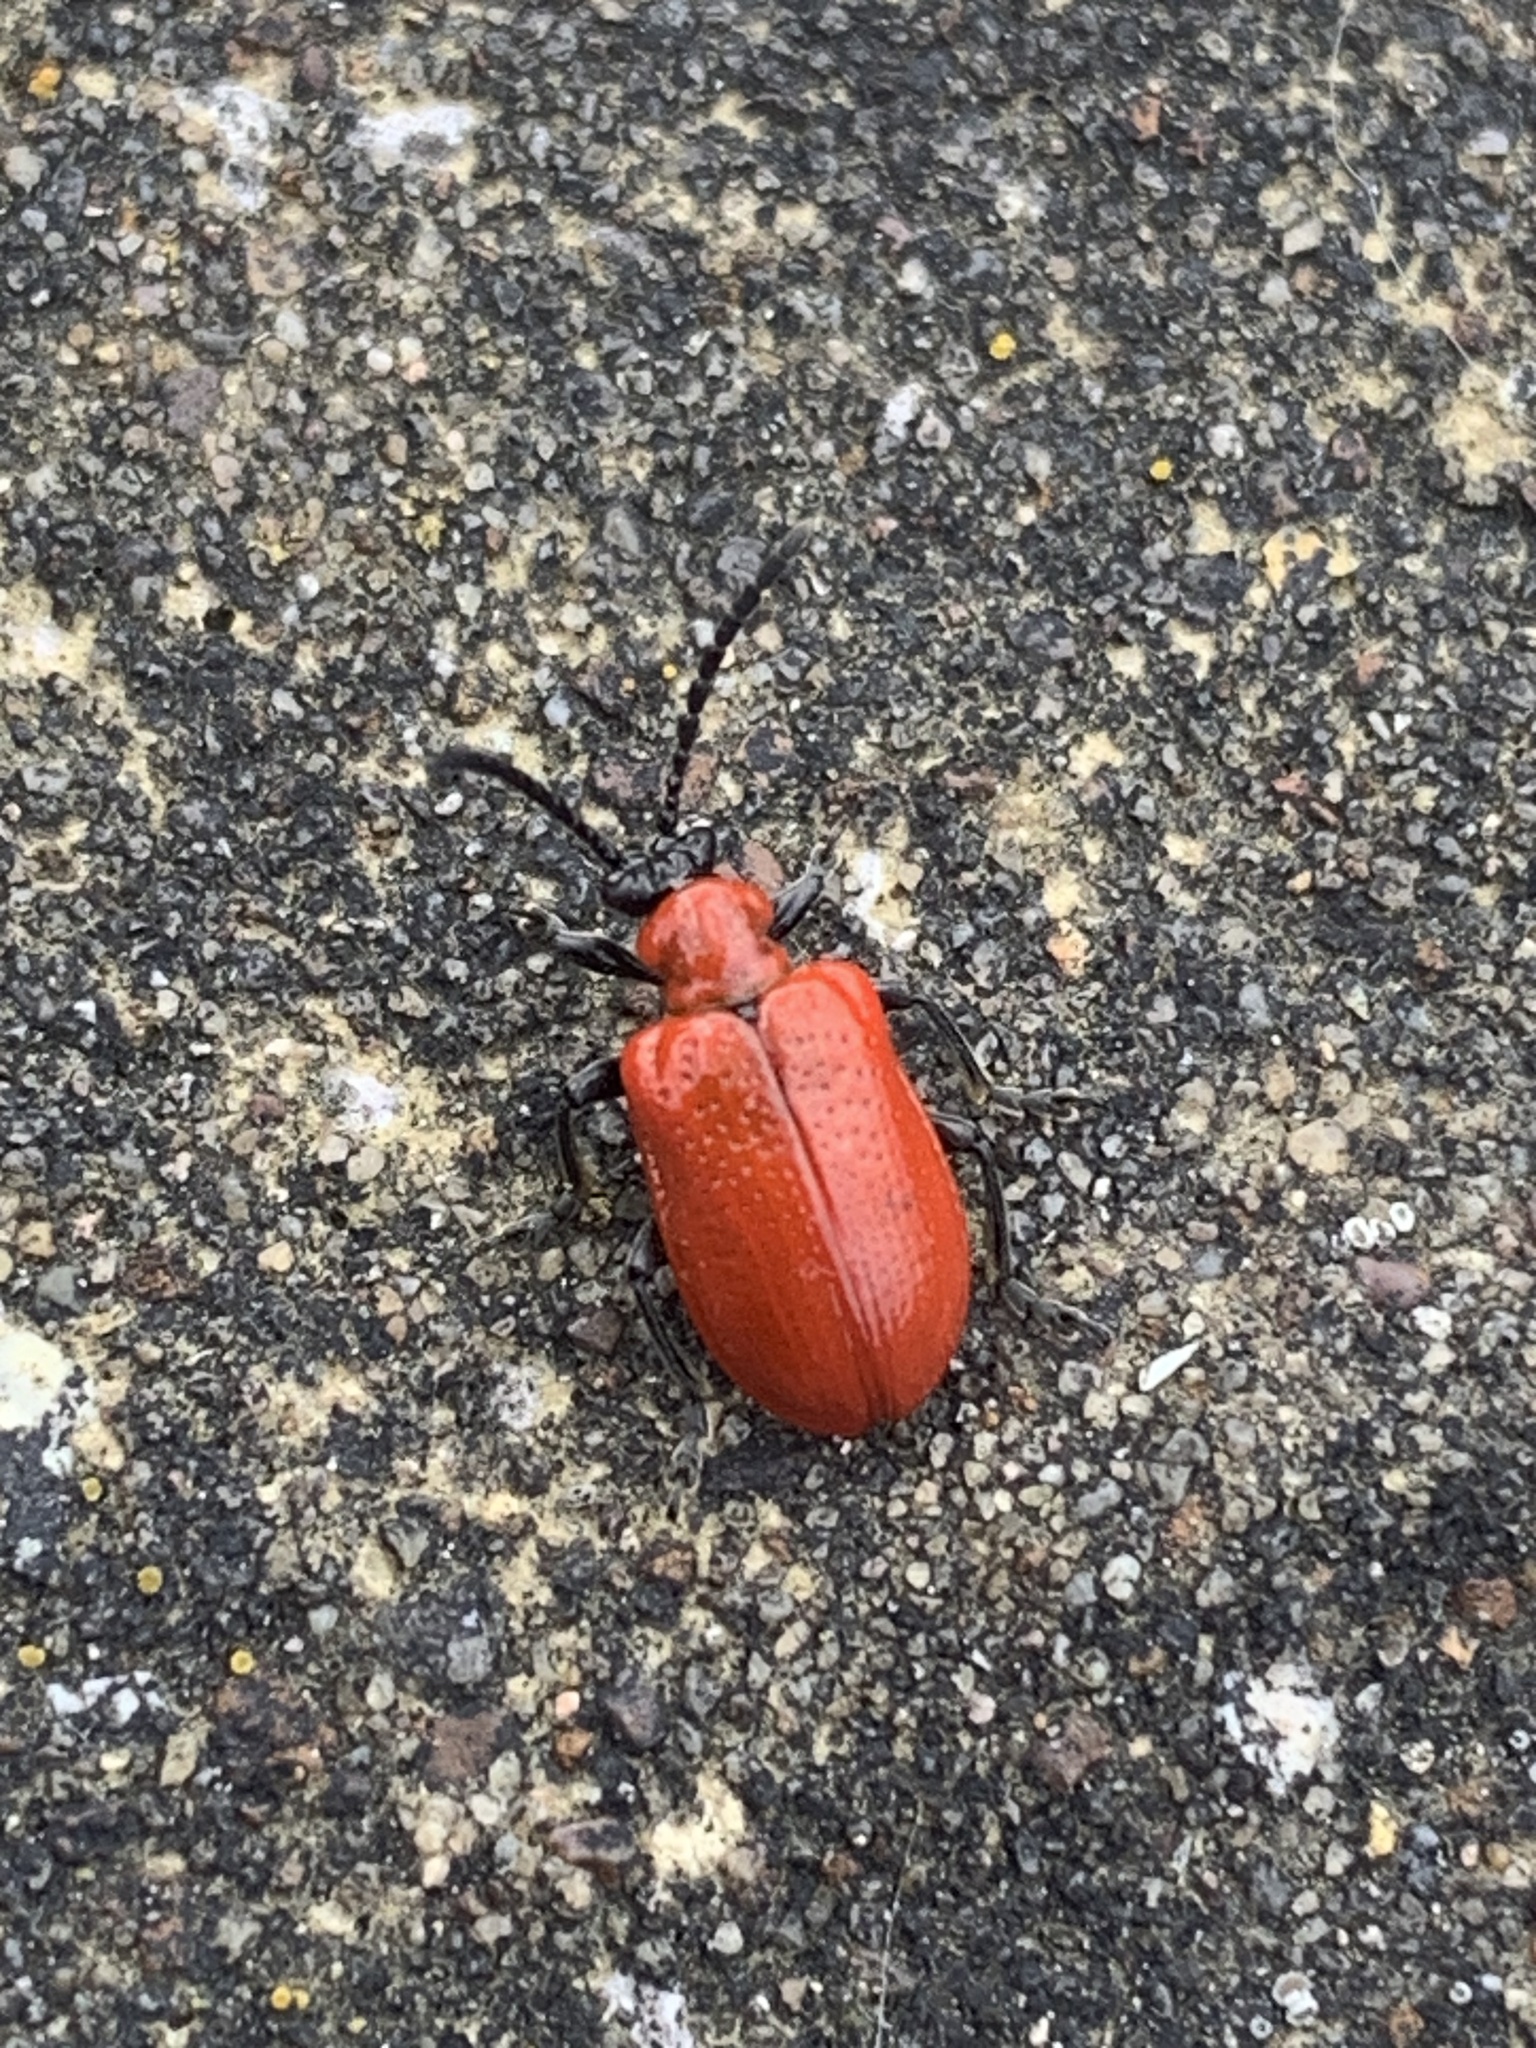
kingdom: Animalia
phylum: Arthropoda
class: Insecta
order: Coleoptera
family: Chrysomelidae
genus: Lilioceris
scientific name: Lilioceris lilii
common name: Lily beetle
